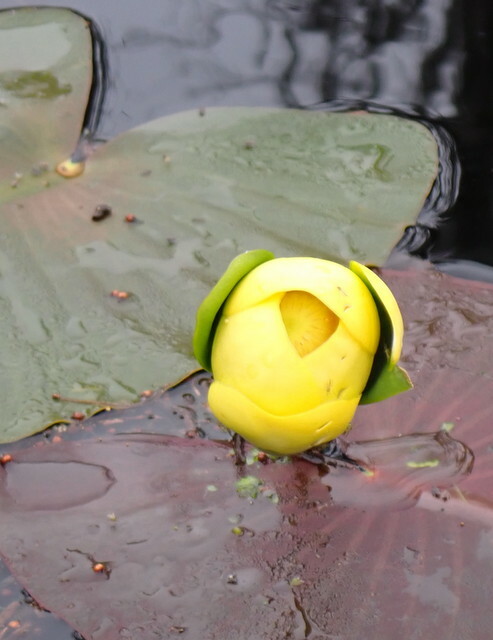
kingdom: Plantae
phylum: Tracheophyta
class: Magnoliopsida
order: Nymphaeales
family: Nymphaeaceae
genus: Nuphar
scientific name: Nuphar advena
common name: Spatter-dock
